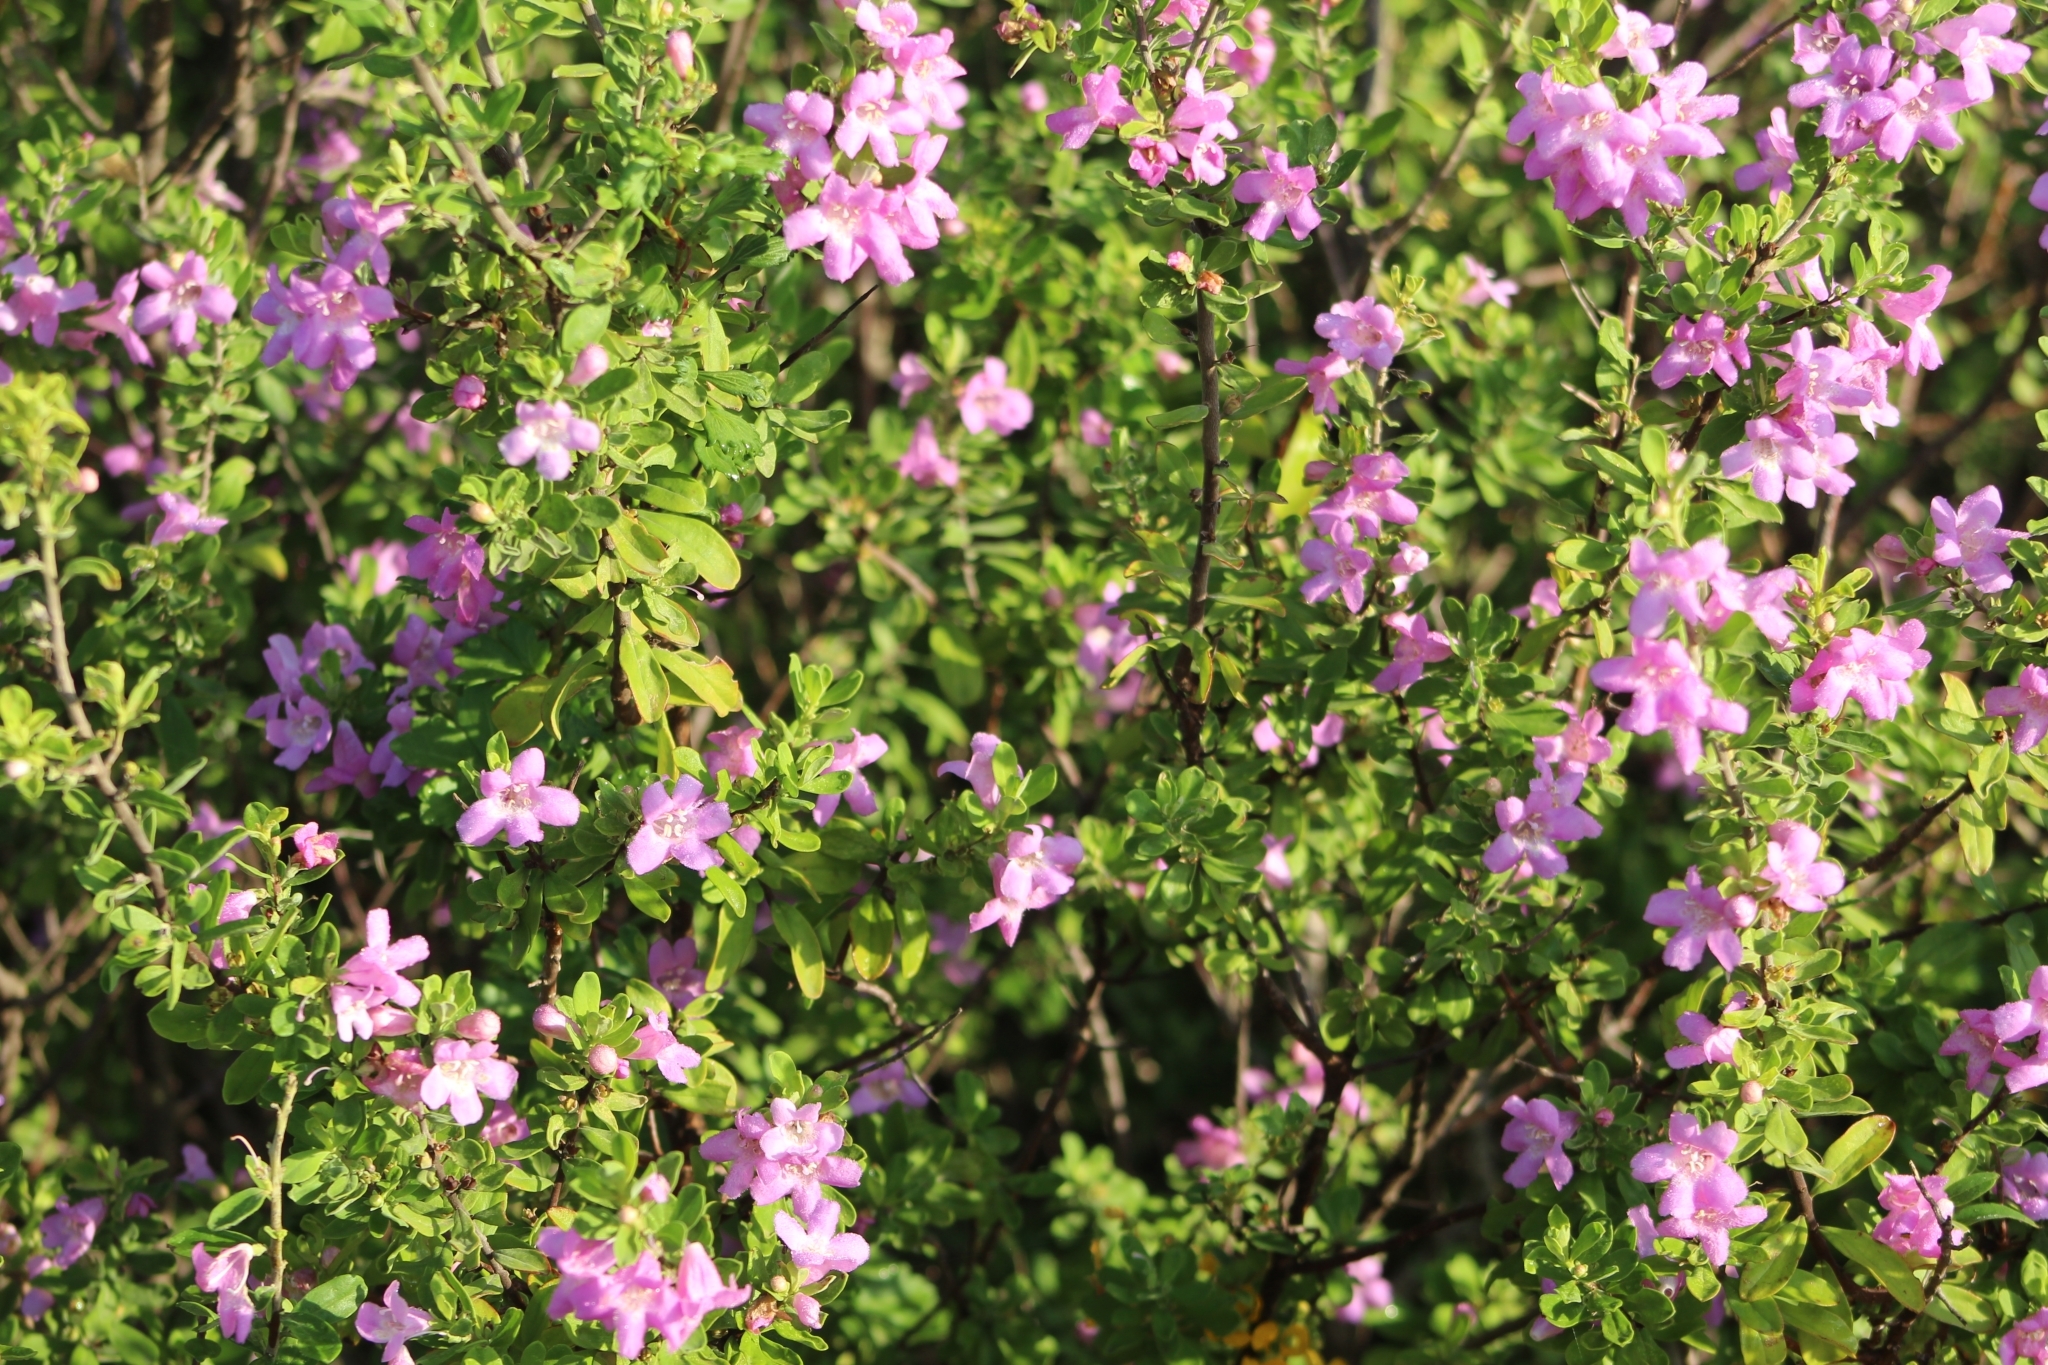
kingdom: Plantae
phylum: Tracheophyta
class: Magnoliopsida
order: Lamiales
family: Scrophulariaceae
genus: Leucophyllum
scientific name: Leucophyllum frutescens
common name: Texas silverleaf
